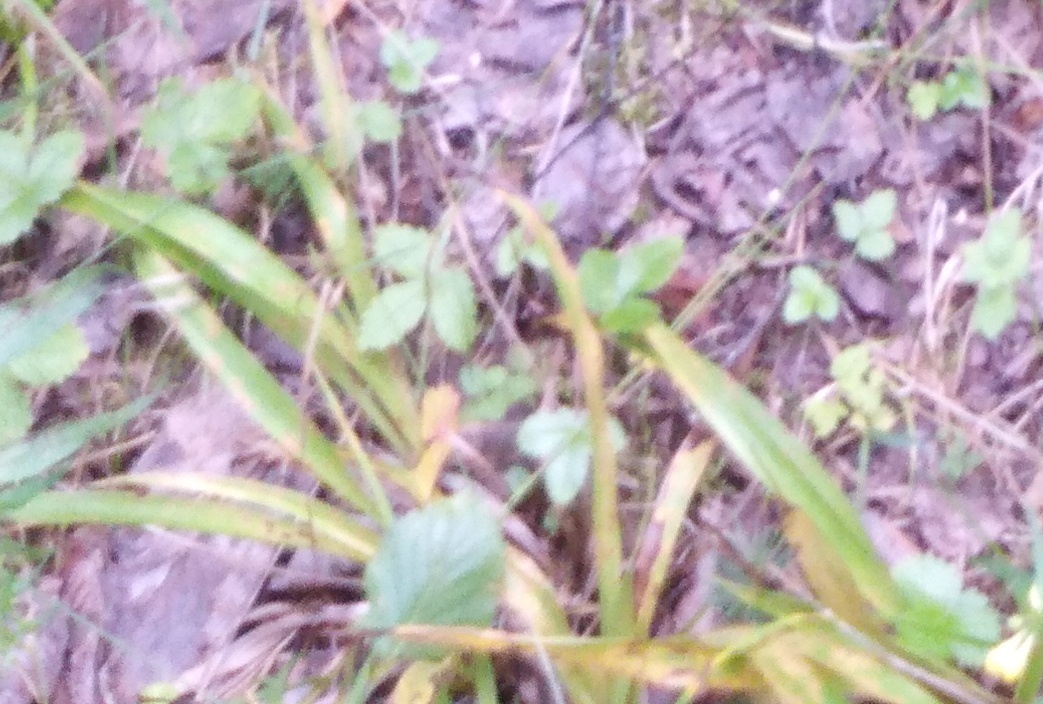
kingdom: Plantae
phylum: Tracheophyta
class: Liliopsida
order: Poales
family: Juncaceae
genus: Luzula
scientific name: Luzula pilosa
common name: Hairy wood-rush
